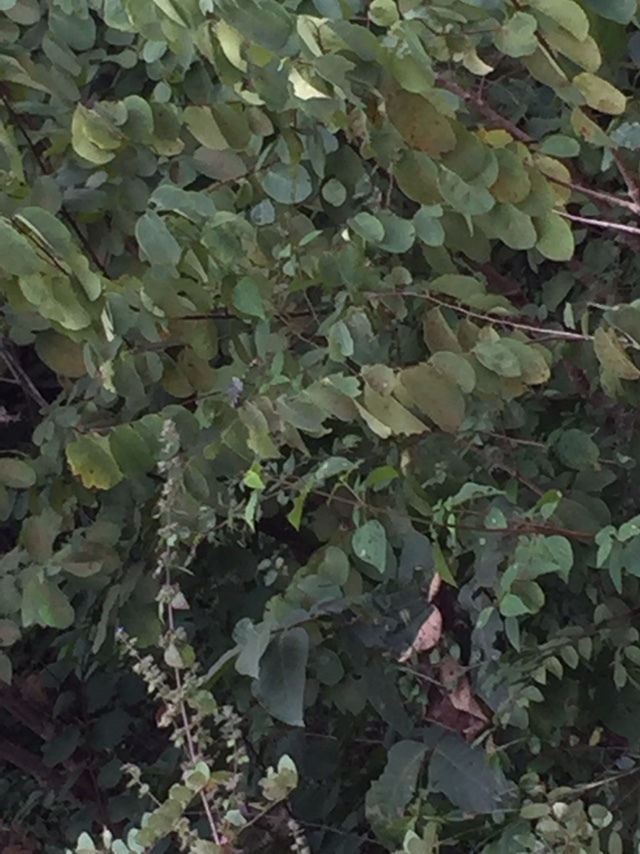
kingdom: Animalia
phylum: Arthropoda
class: Insecta
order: Odonata
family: Gomphidae
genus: Ictinogomphus
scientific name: Ictinogomphus rapax
